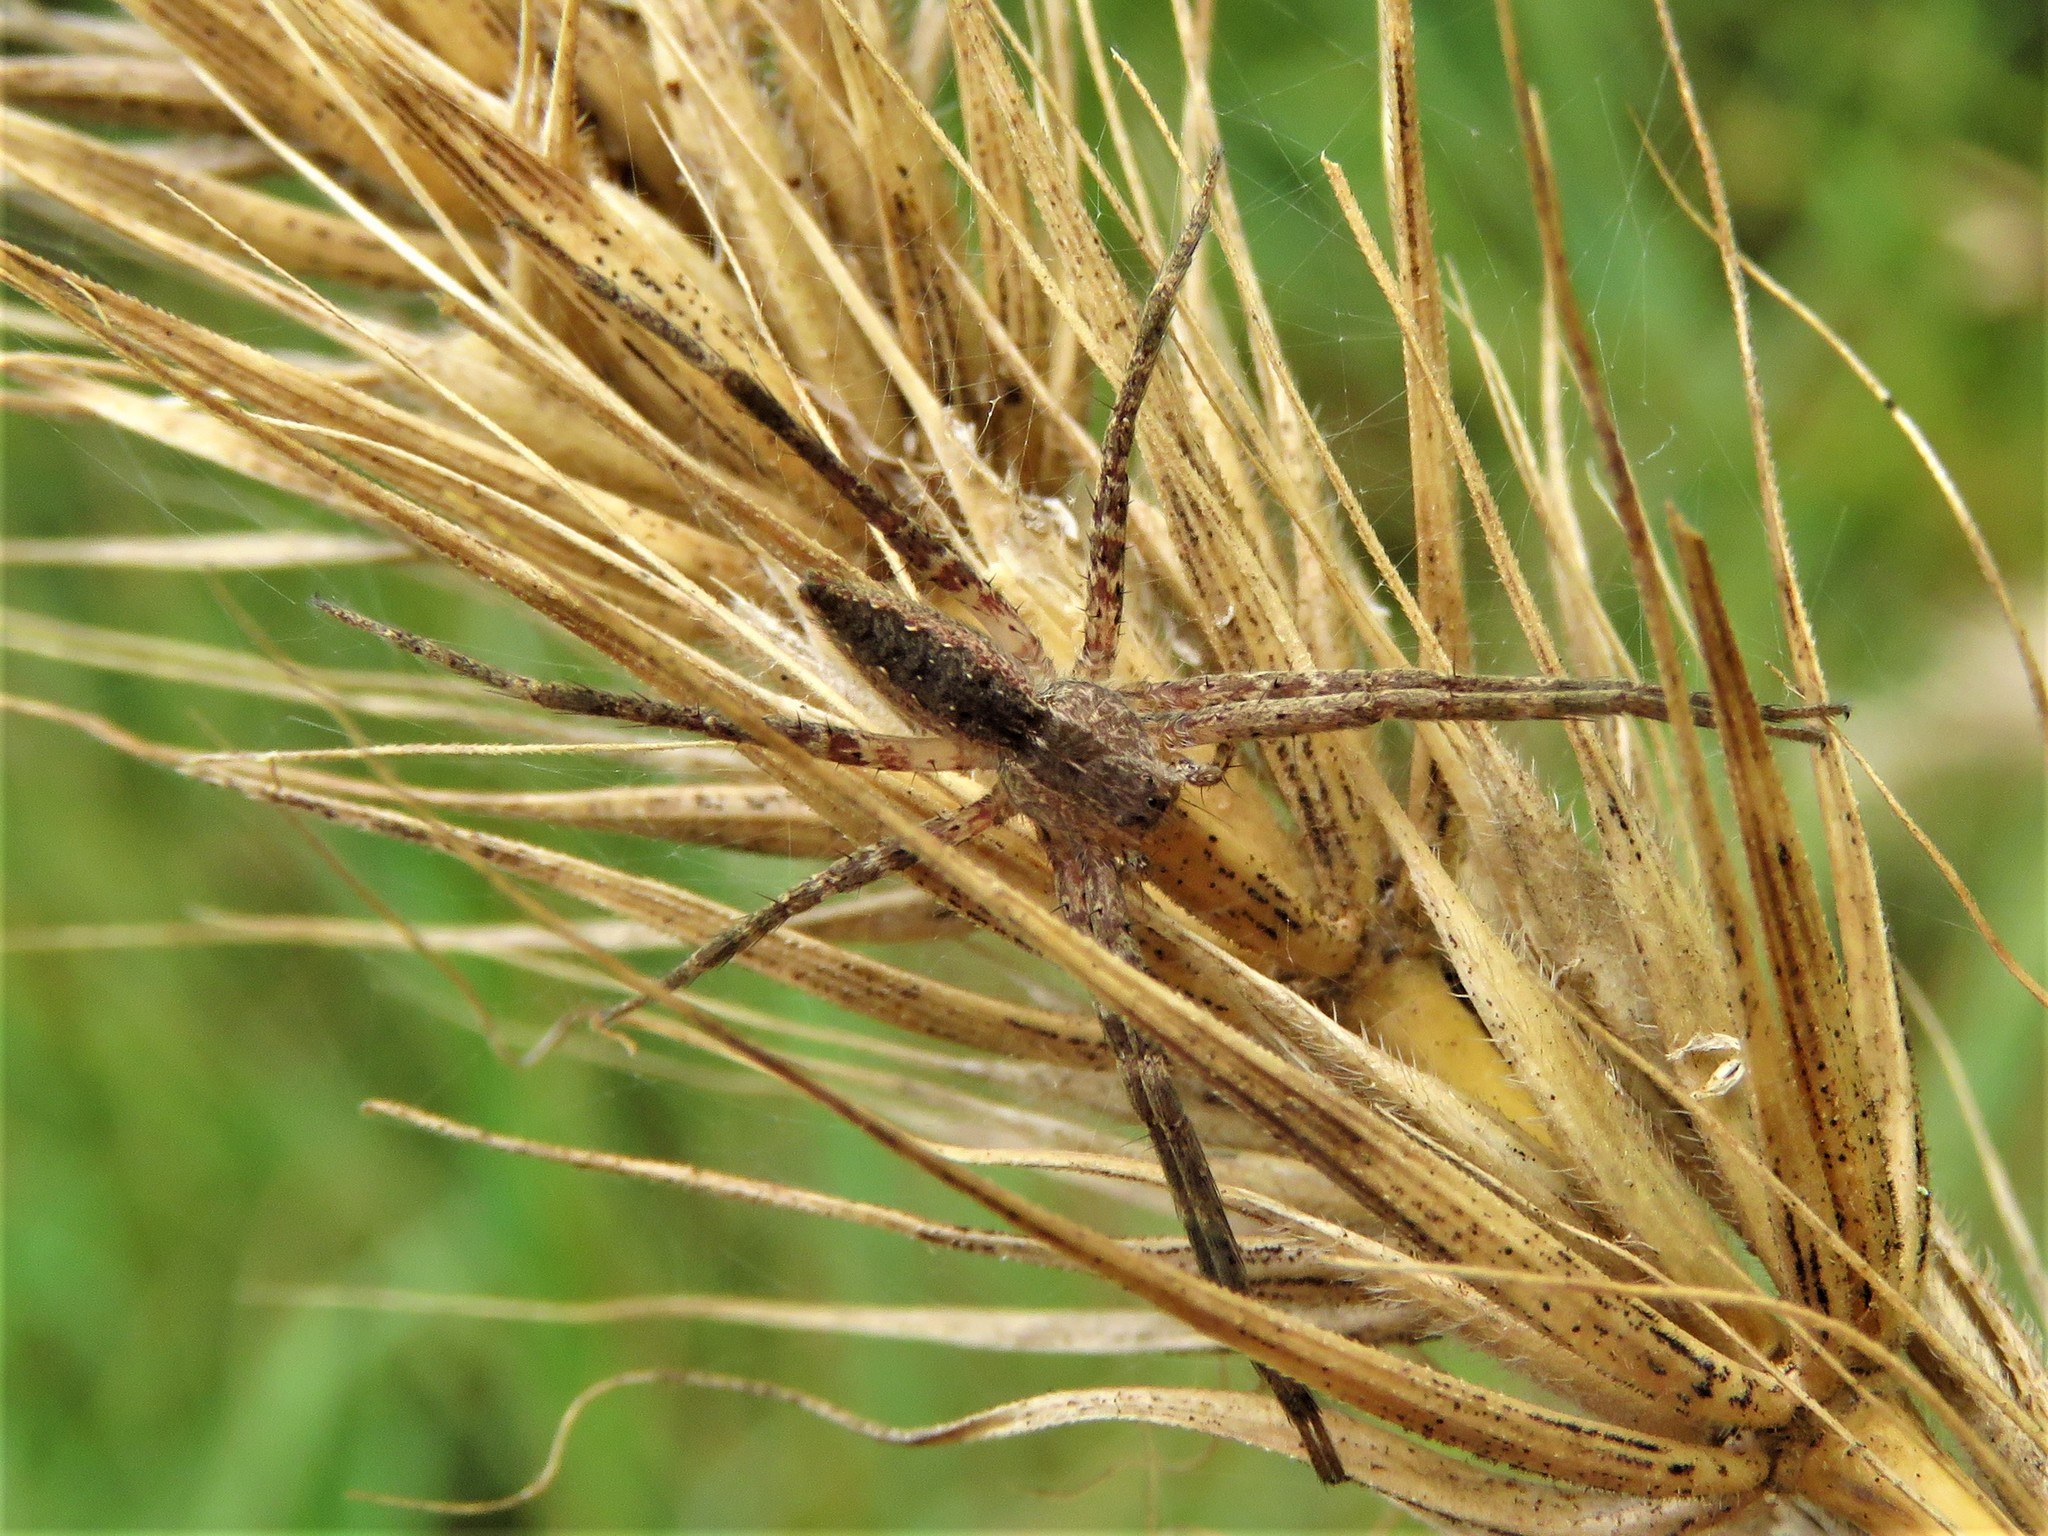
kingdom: Animalia
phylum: Arthropoda
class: Arachnida
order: Araneae
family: Pisauridae
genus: Pisaurina
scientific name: Pisaurina mira
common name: American nursery web spider
